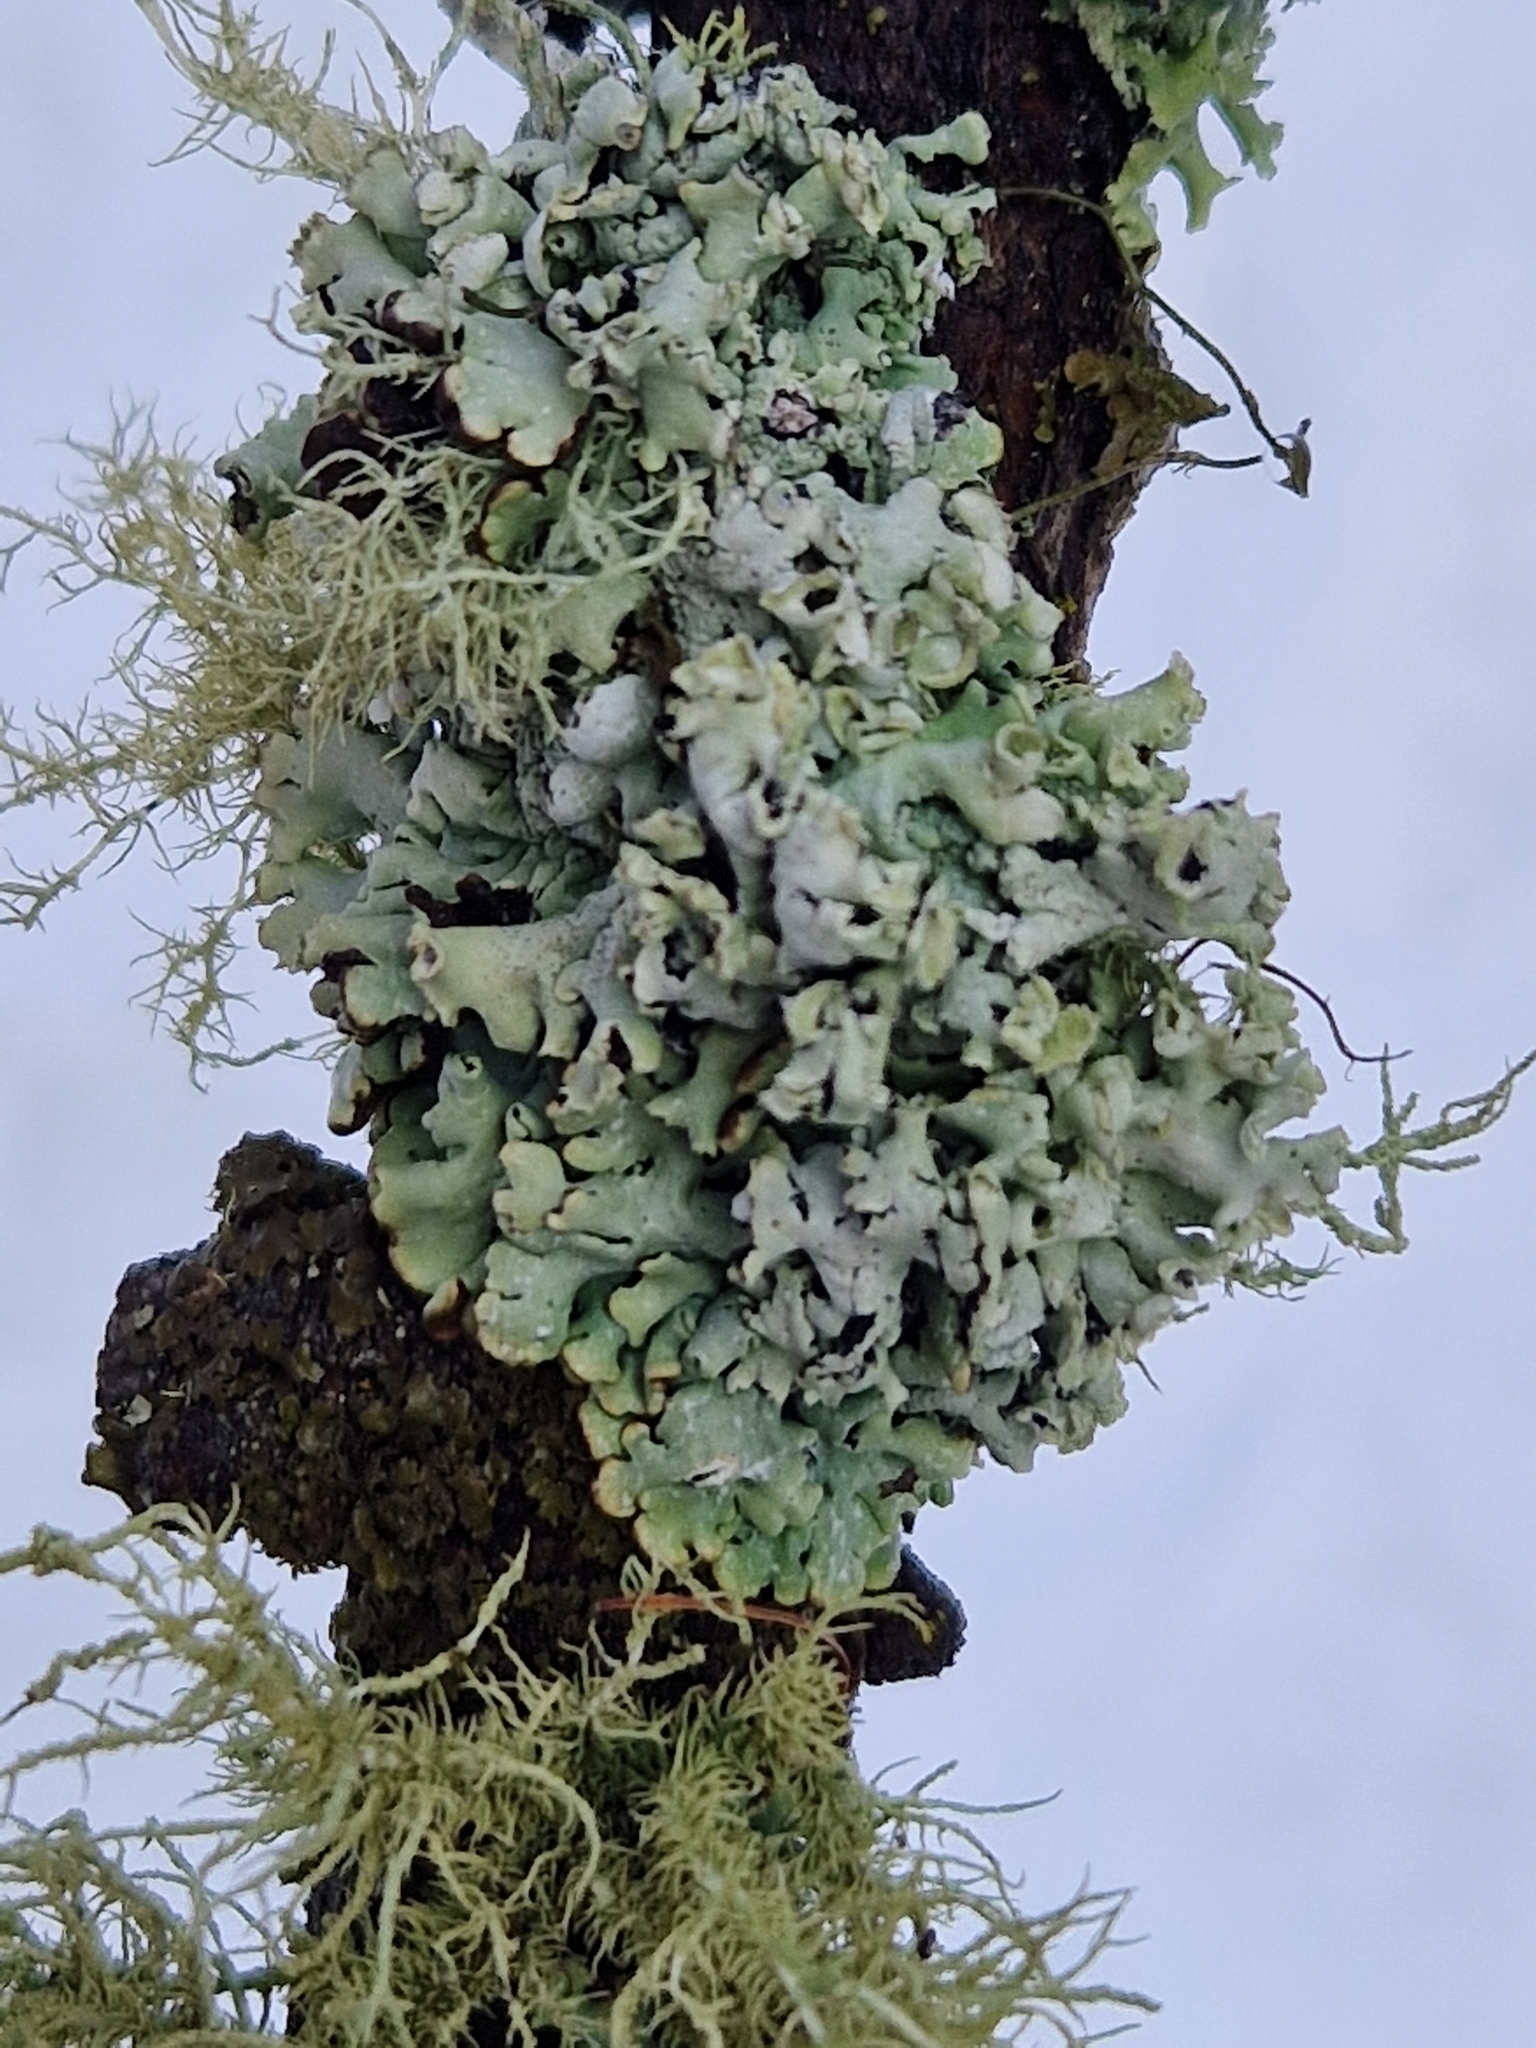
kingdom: Fungi
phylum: Ascomycota
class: Lecanoromycetes
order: Lecanorales
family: Parmeliaceae
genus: Hypogymnia
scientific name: Hypogymnia physodes
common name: Dark crottle
